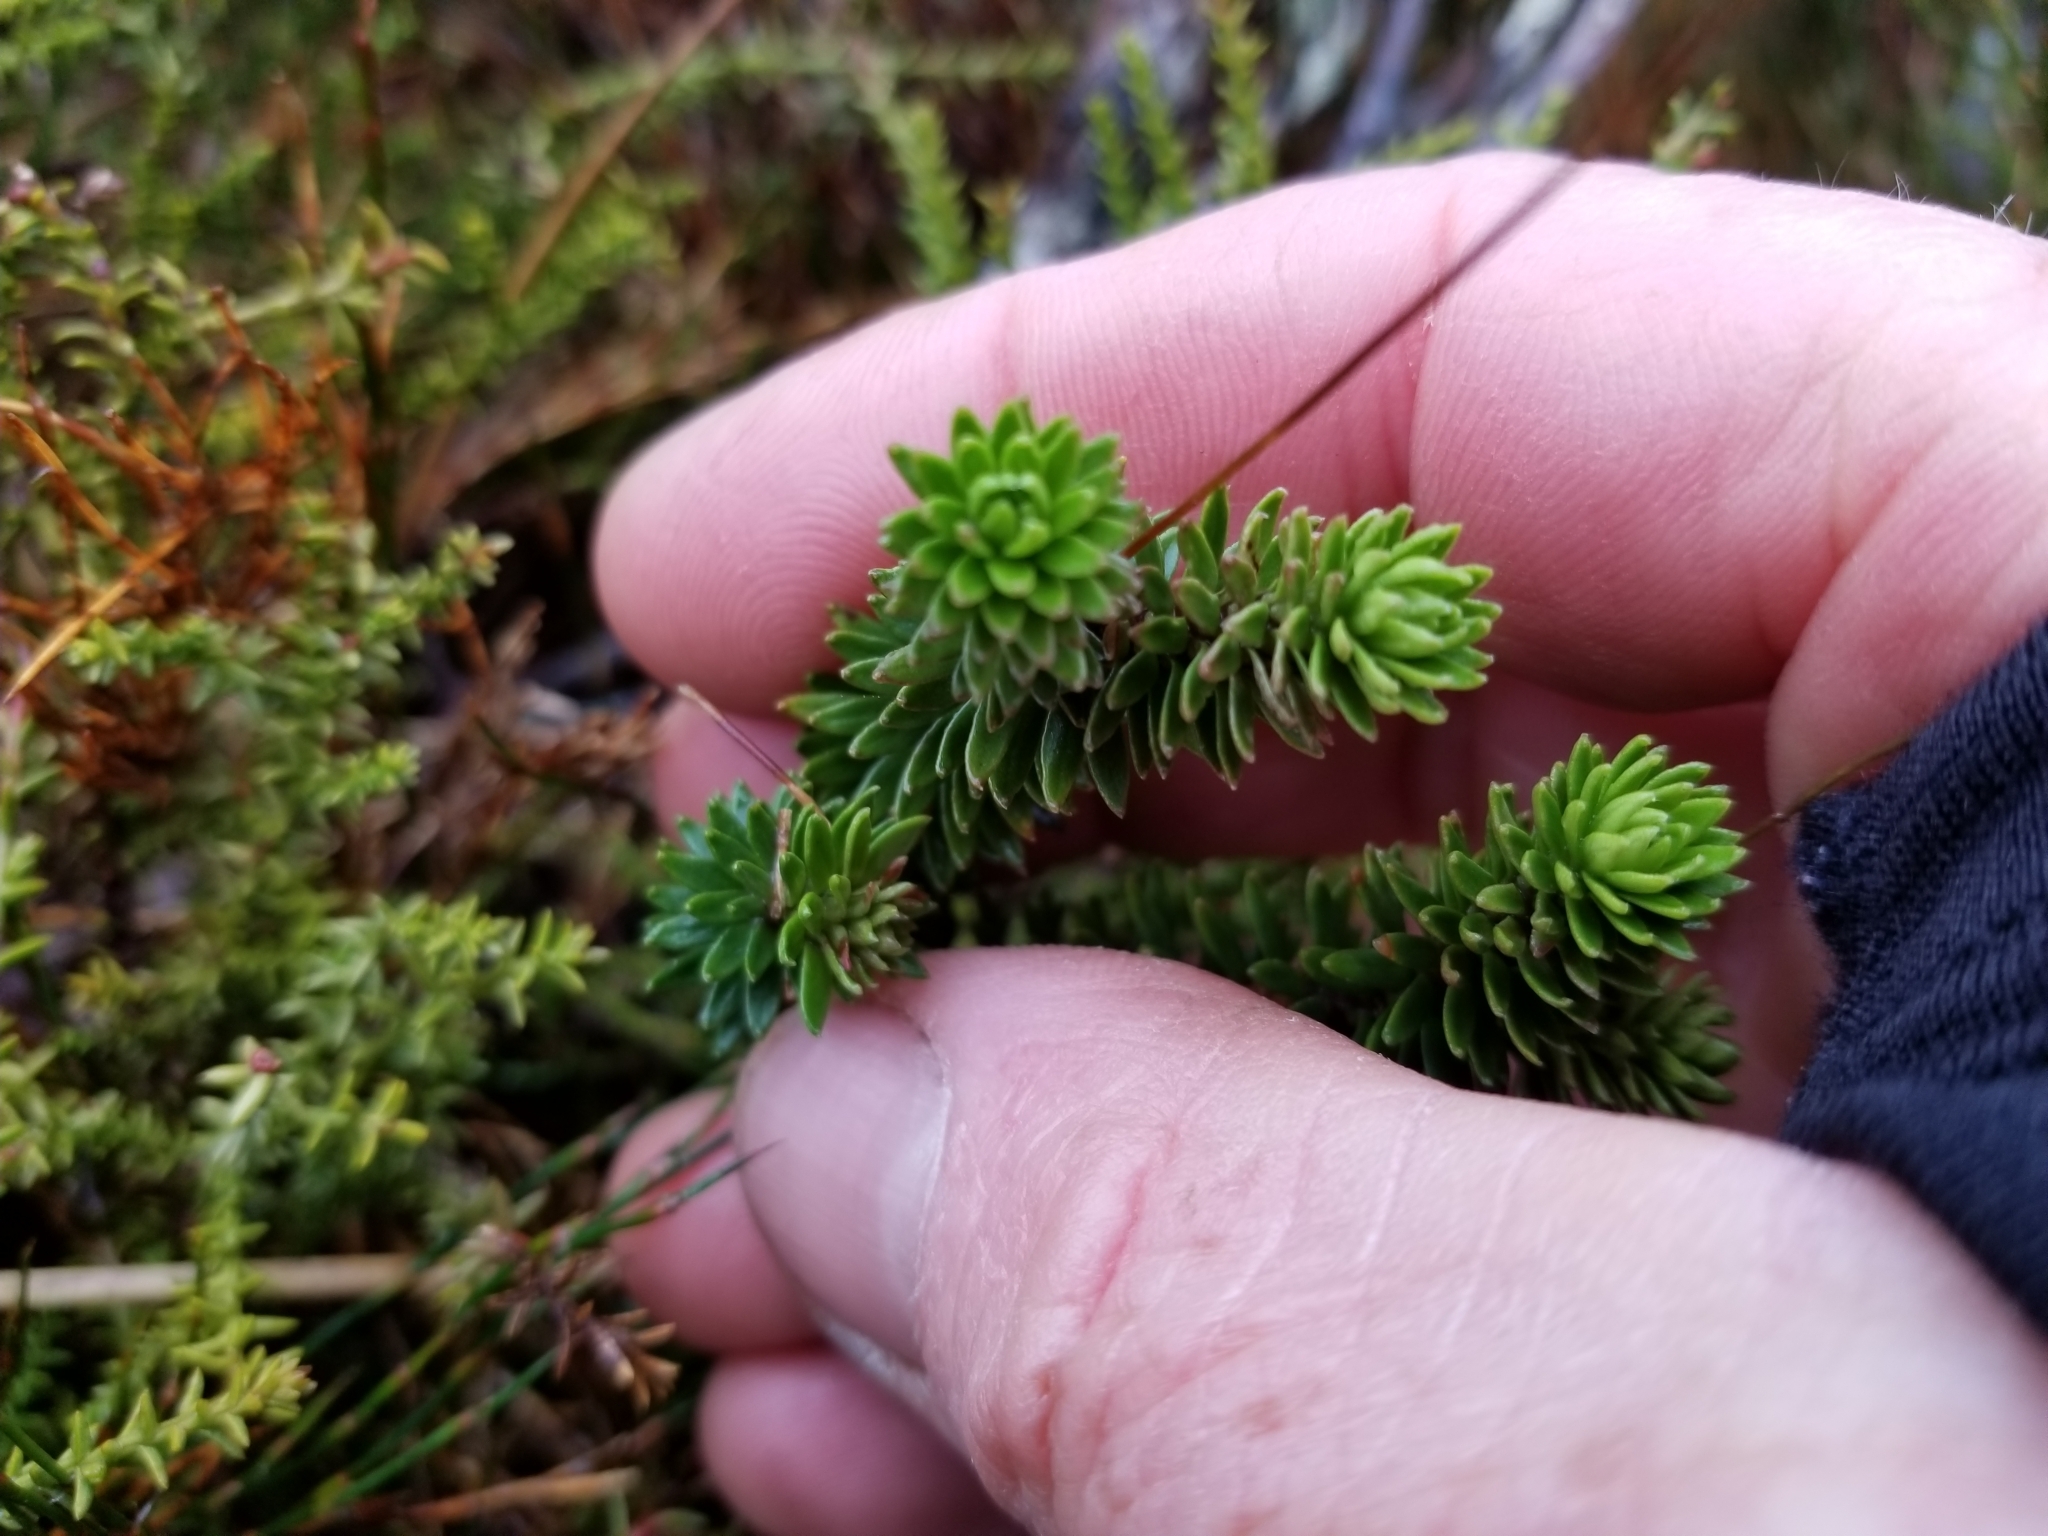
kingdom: Plantae
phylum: Tracheophyta
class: Magnoliopsida
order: Asterales
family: Stylidiaceae
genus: Forstera
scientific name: Forstera mackayi
